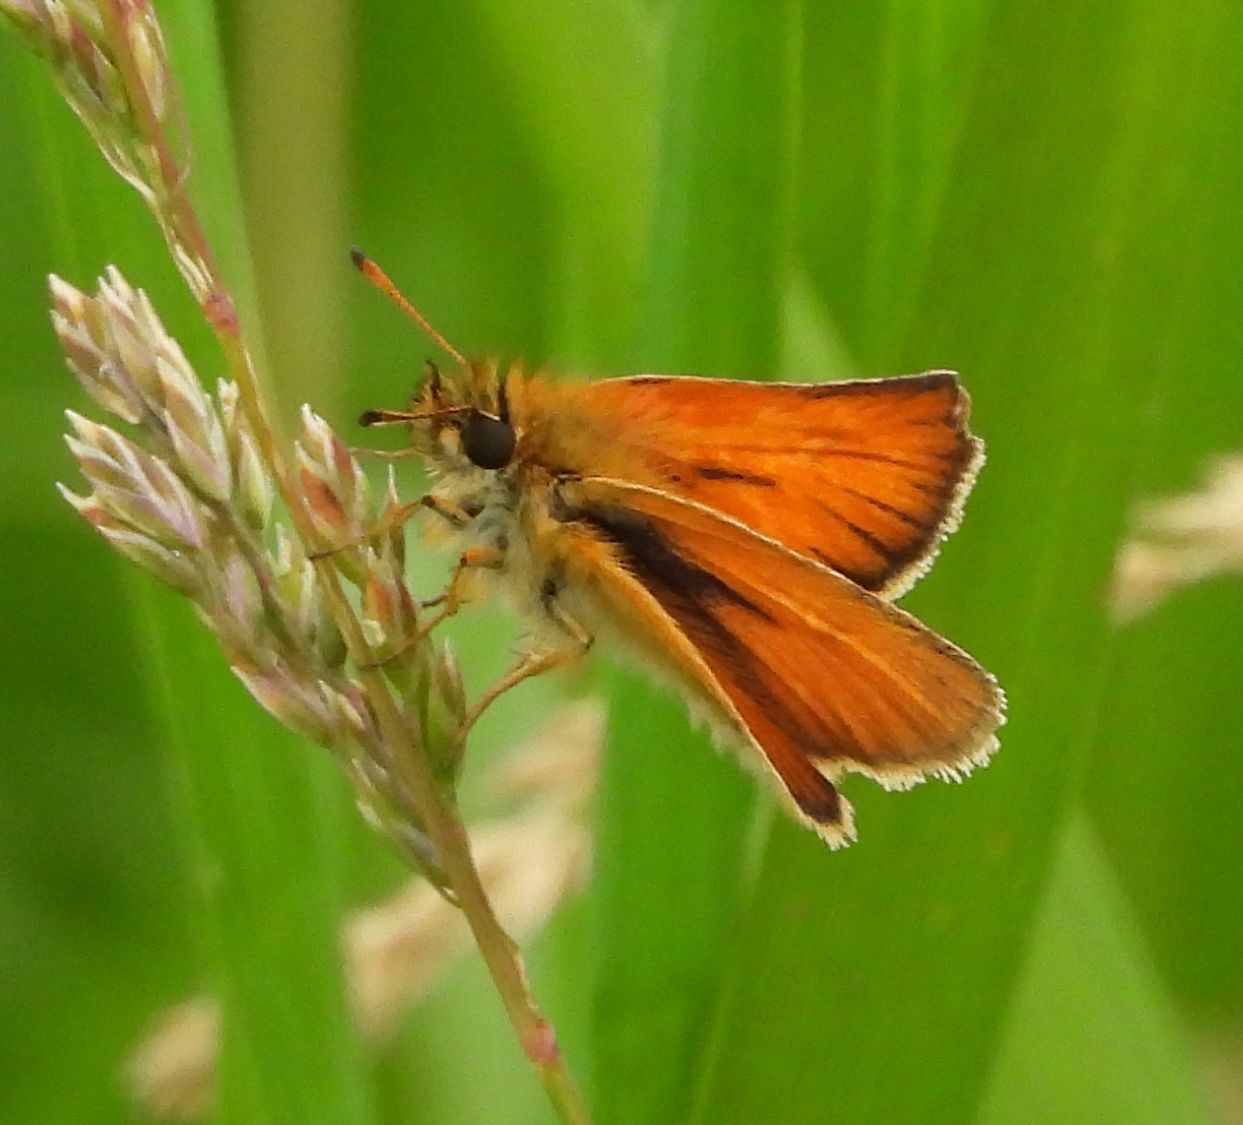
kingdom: Animalia
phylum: Arthropoda
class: Insecta
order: Lepidoptera
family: Hesperiidae
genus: Thymelicus
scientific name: Thymelicus lineola
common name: Essex skipper
